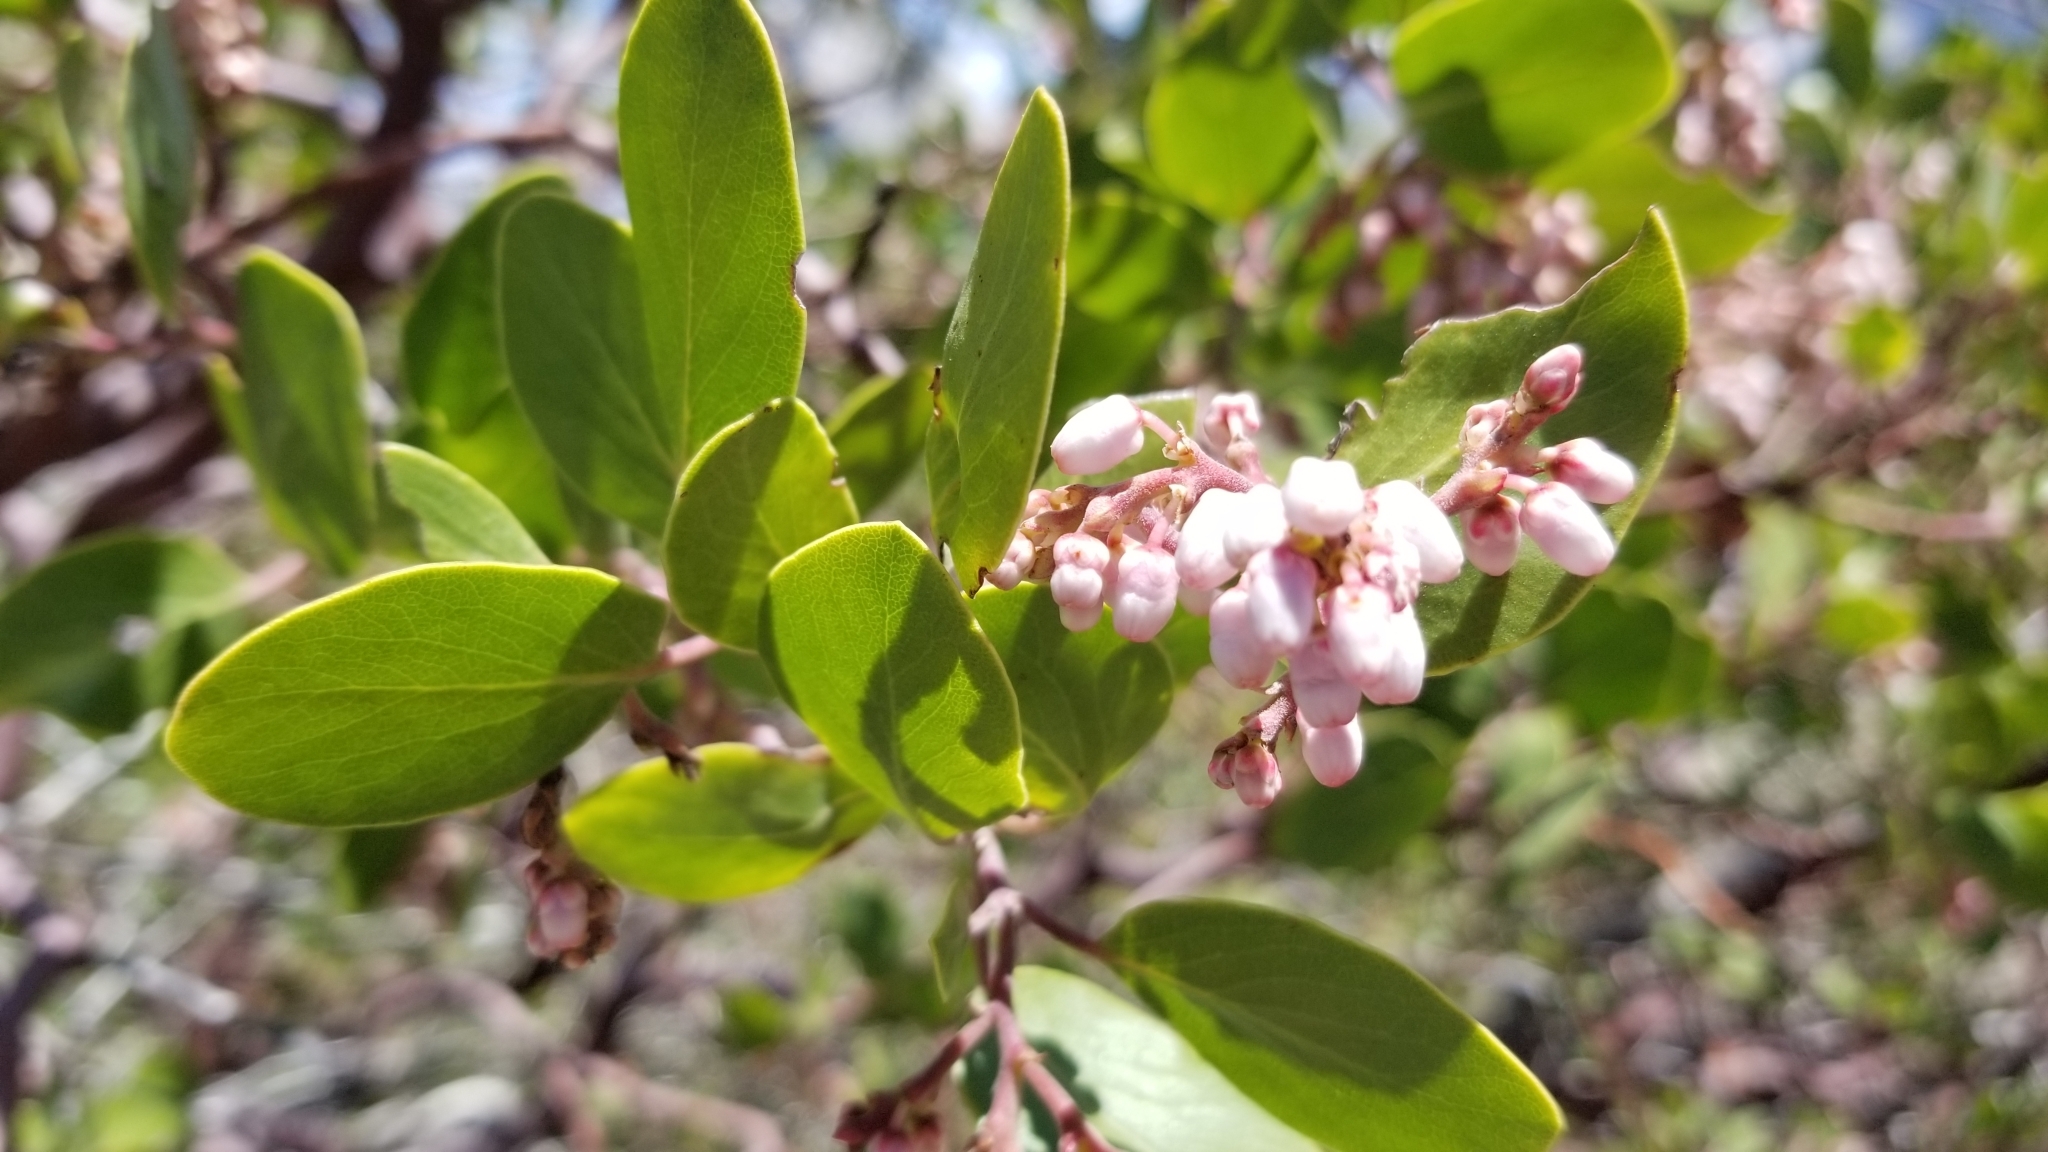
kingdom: Plantae
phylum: Tracheophyta
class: Magnoliopsida
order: Ericales
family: Ericaceae
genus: Arctostaphylos
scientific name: Arctostaphylos patula
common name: Green-leaf manzanita
